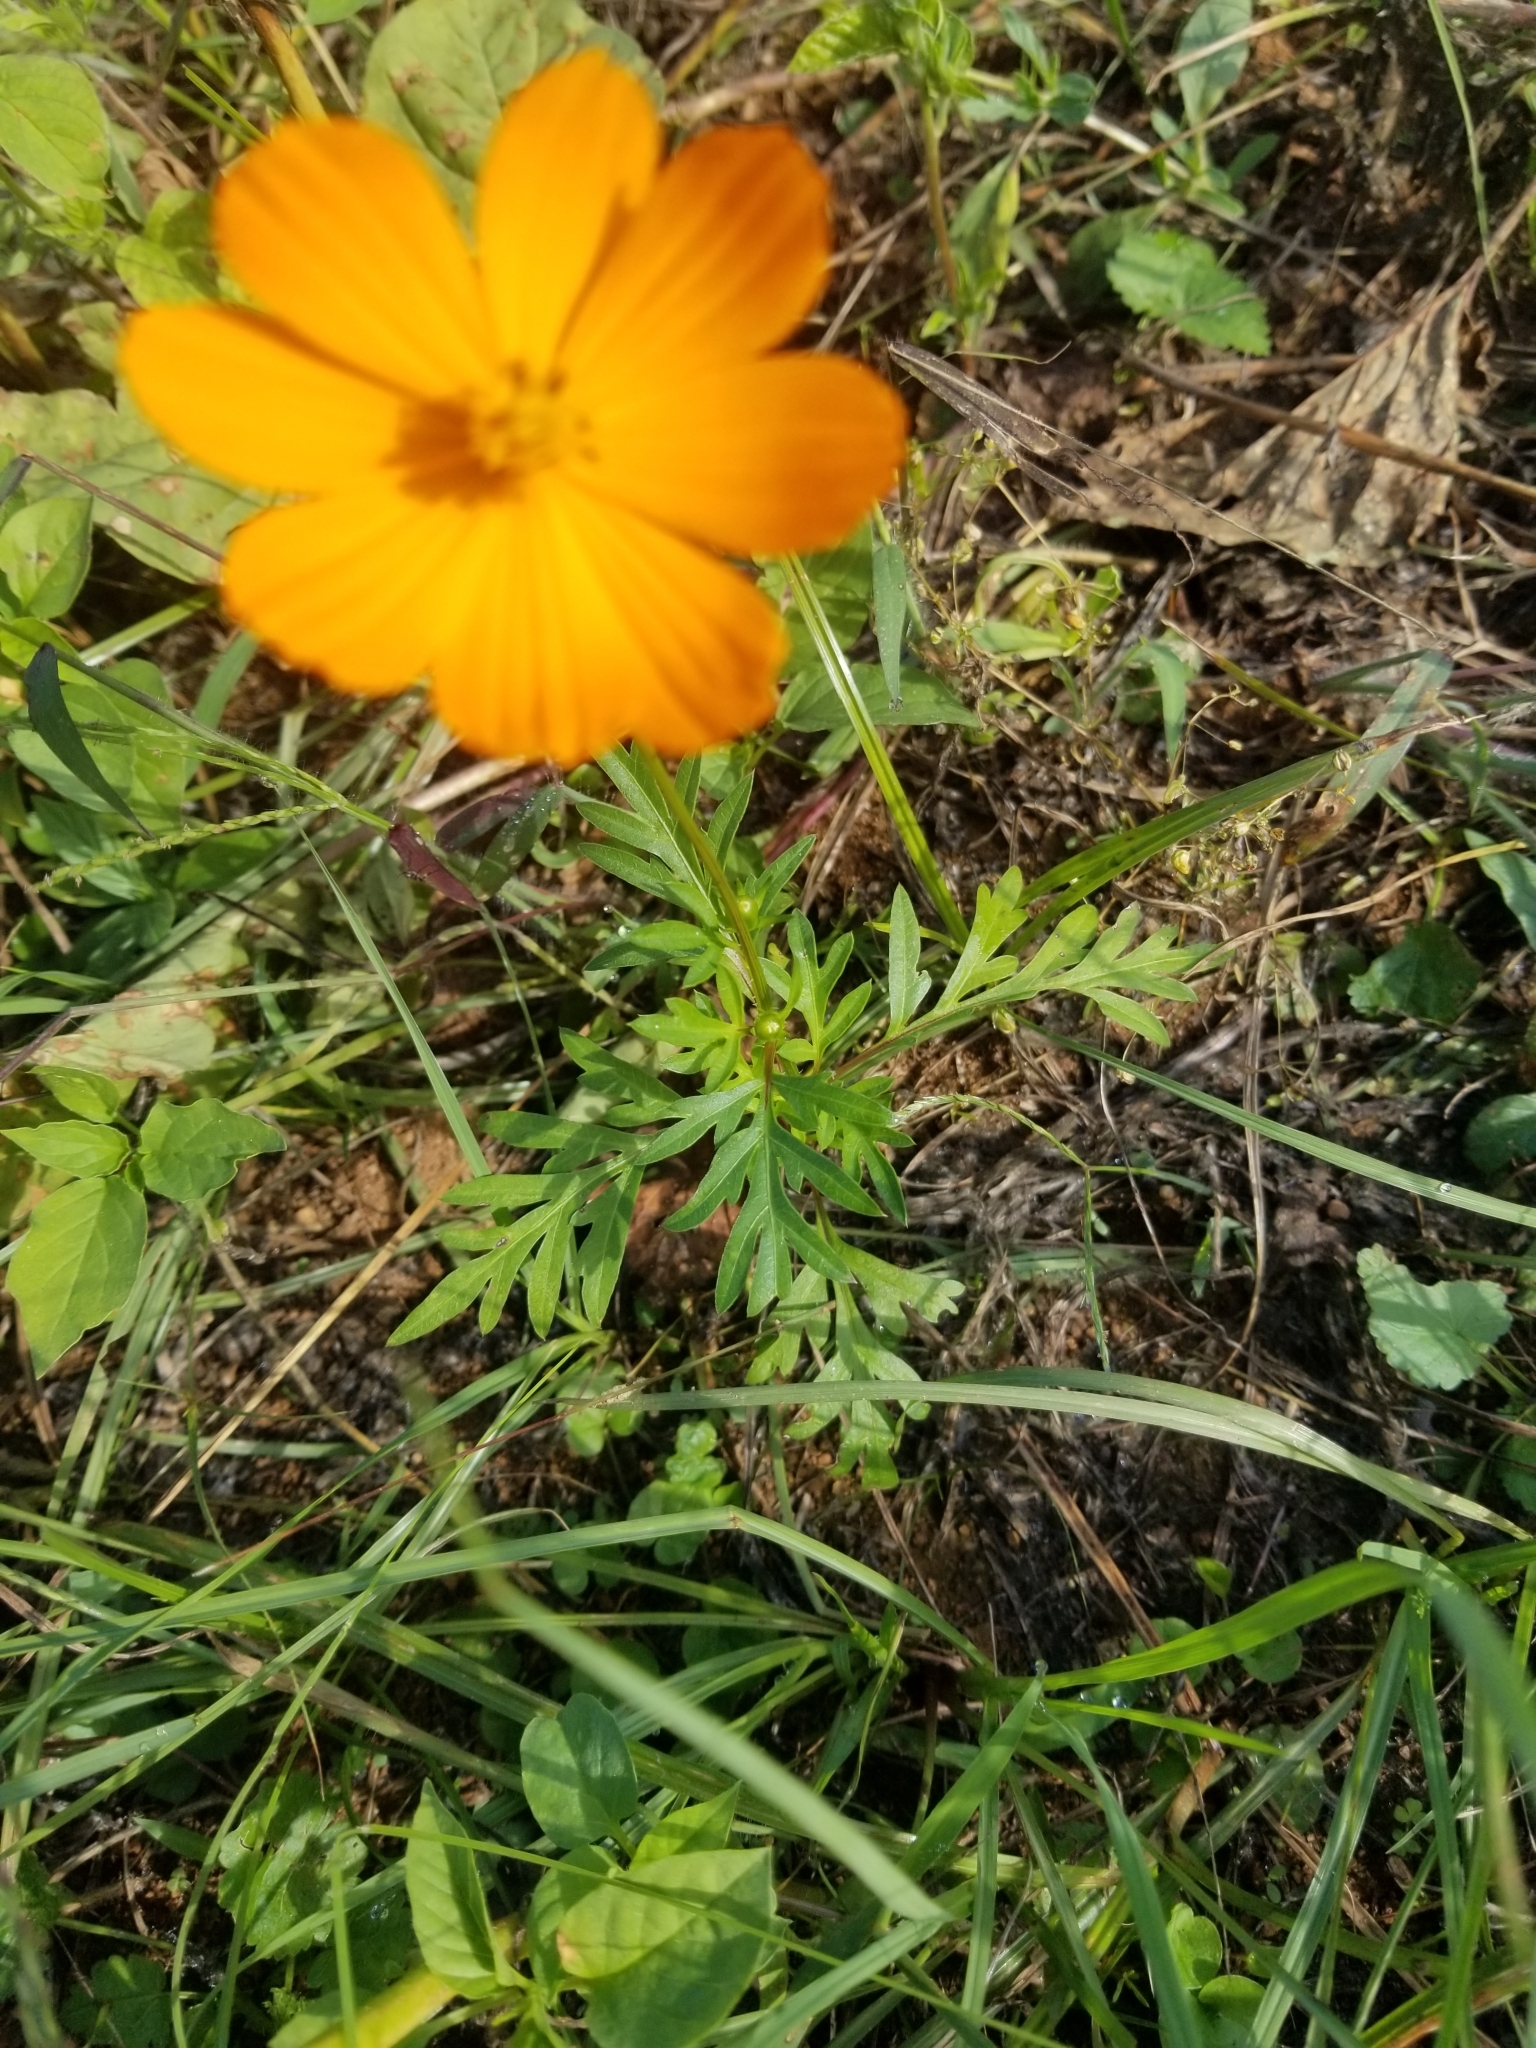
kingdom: Plantae
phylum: Tracheophyta
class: Magnoliopsida
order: Asterales
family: Asteraceae
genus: Cosmos
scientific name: Cosmos sulphureus
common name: Sulphur cosmos
